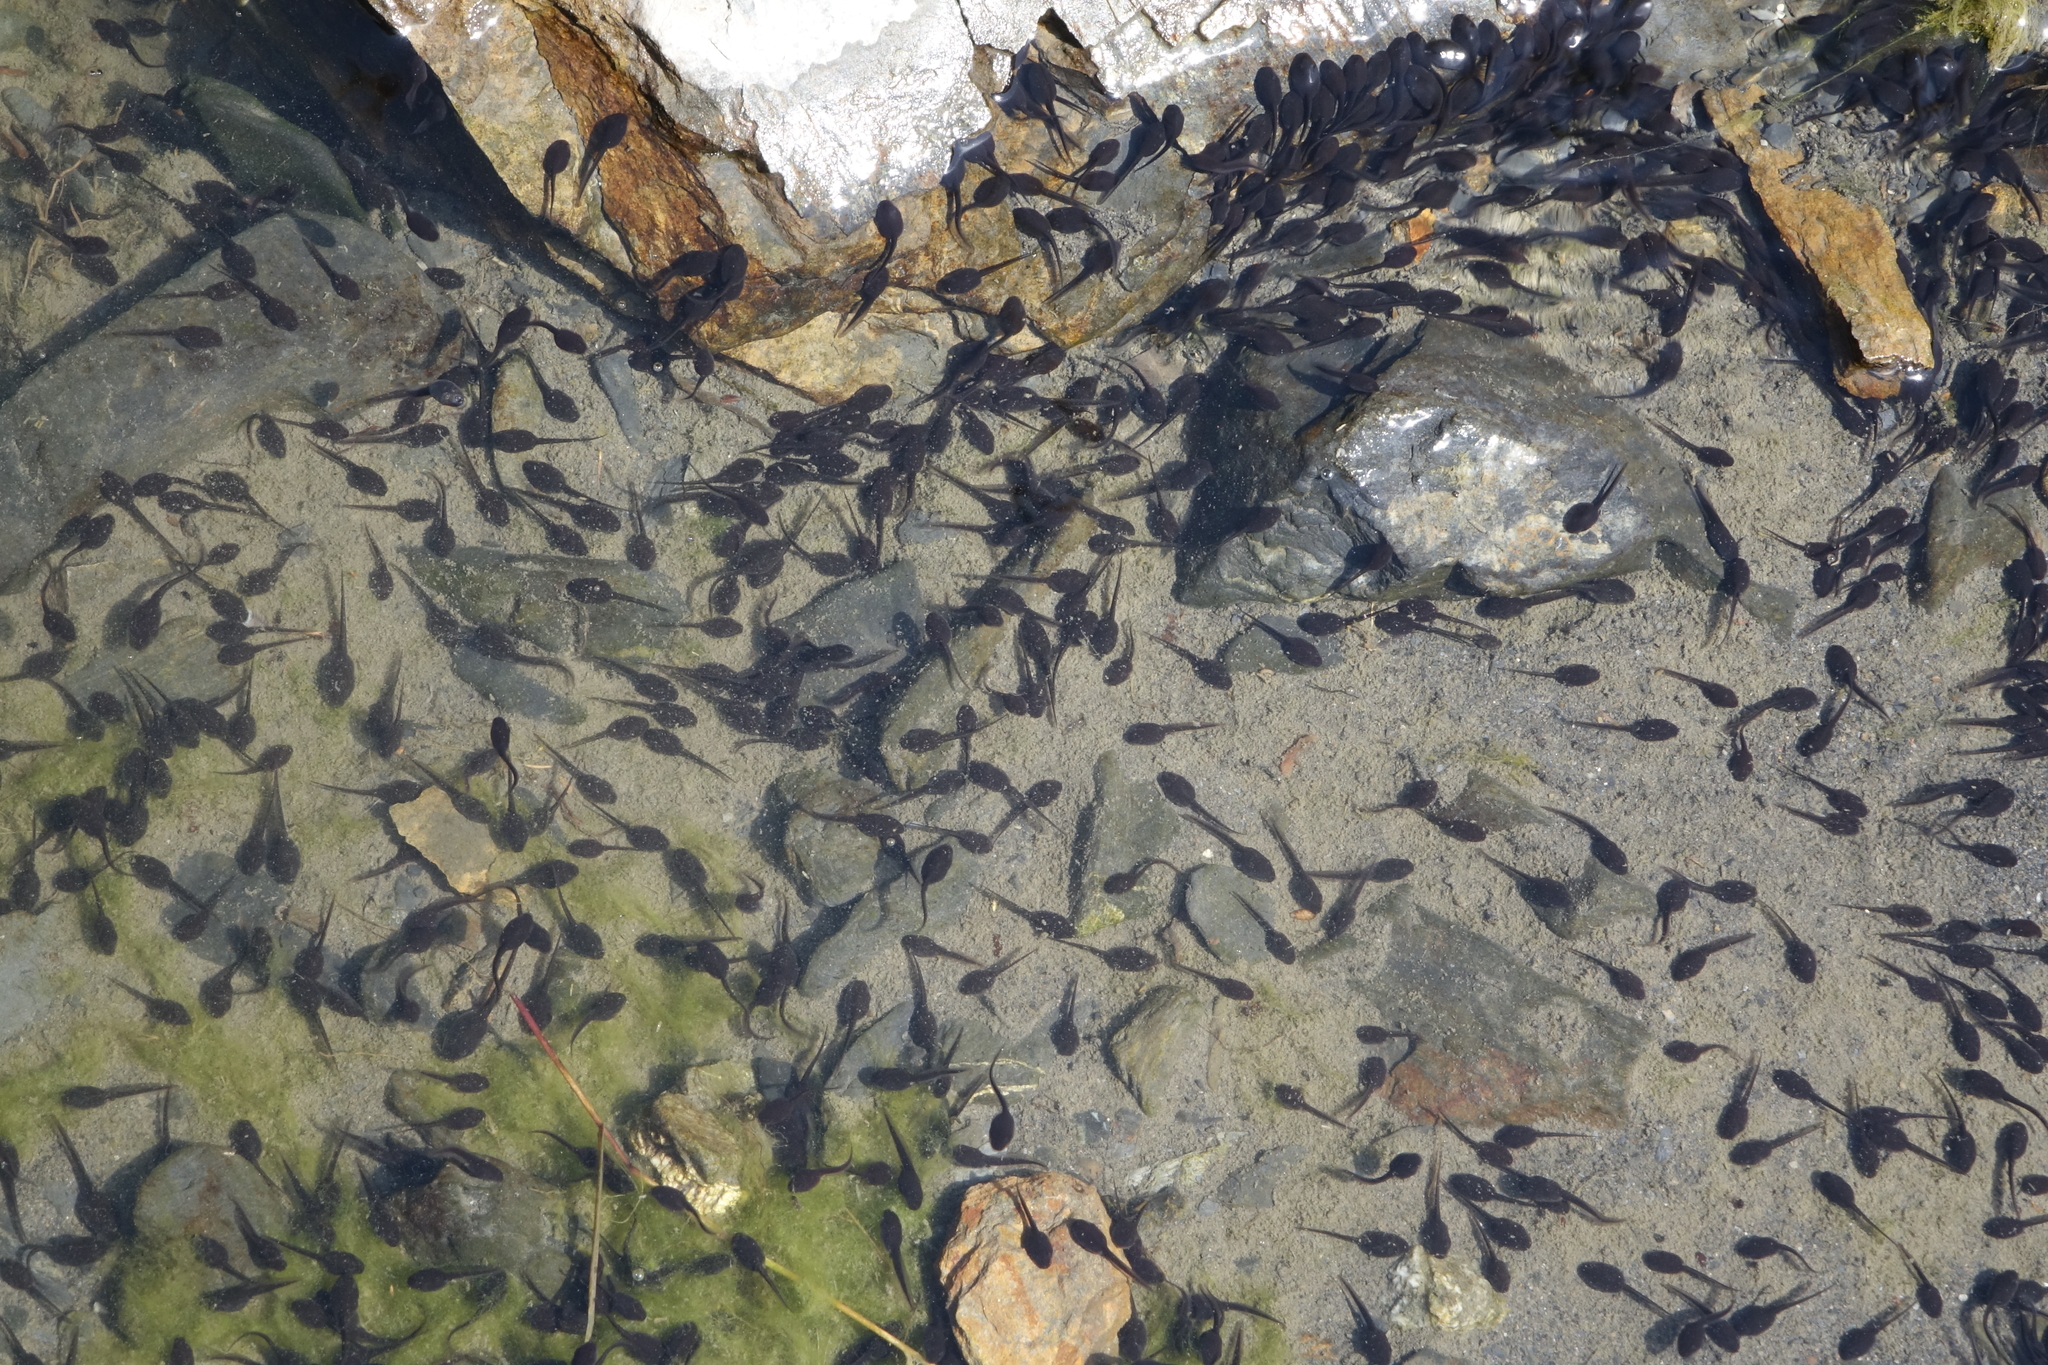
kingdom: Animalia
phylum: Chordata
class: Amphibia
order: Anura
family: Bufonidae
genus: Bufotes
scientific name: Bufotes viridis
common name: European green toad
